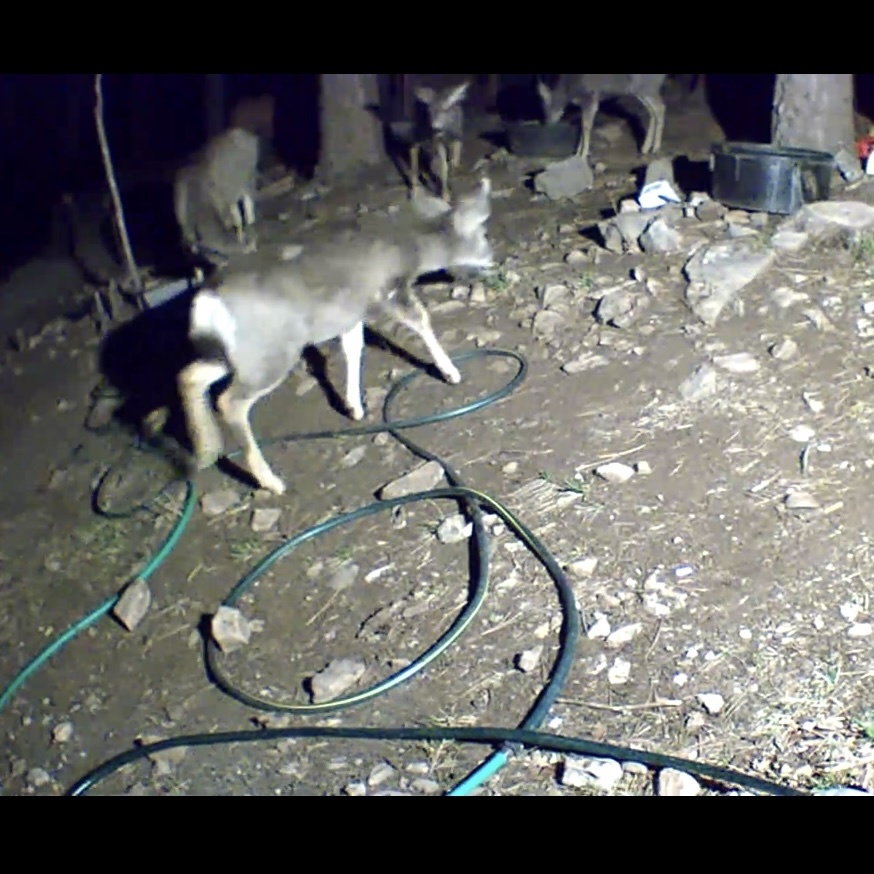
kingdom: Animalia
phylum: Chordata
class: Mammalia
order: Artiodactyla
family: Cervidae
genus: Odocoileus
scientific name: Odocoileus hemionus
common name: Mule deer
